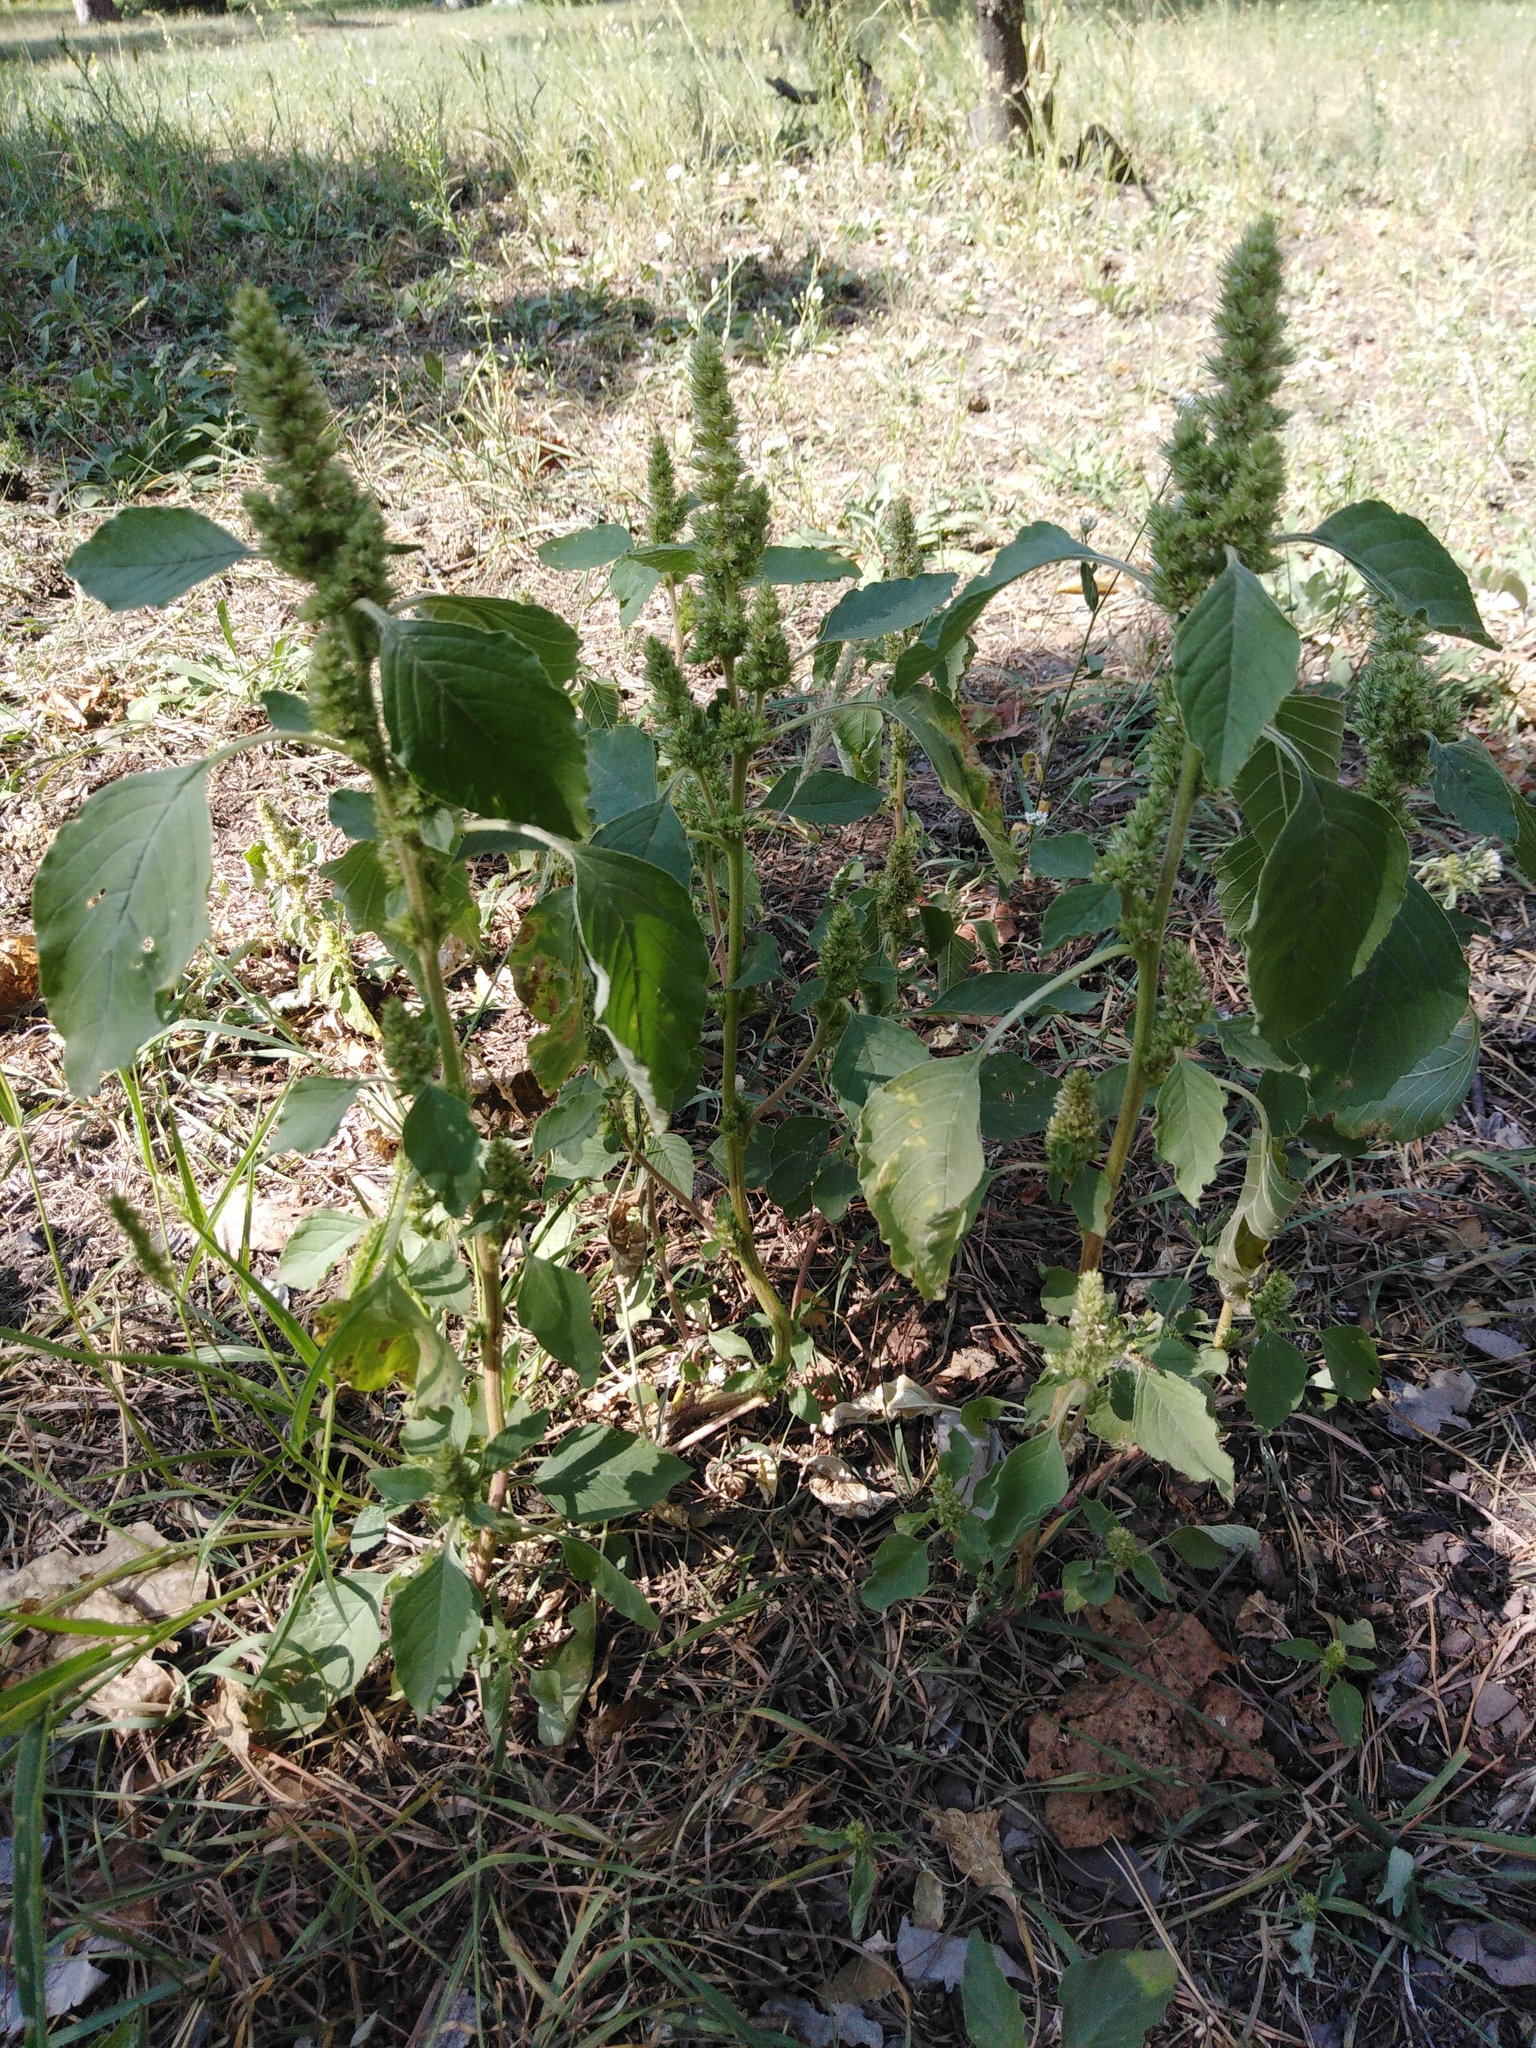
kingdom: Plantae
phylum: Tracheophyta
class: Magnoliopsida
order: Caryophyllales
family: Amaranthaceae
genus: Amaranthus
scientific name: Amaranthus retroflexus
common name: Redroot amaranth
